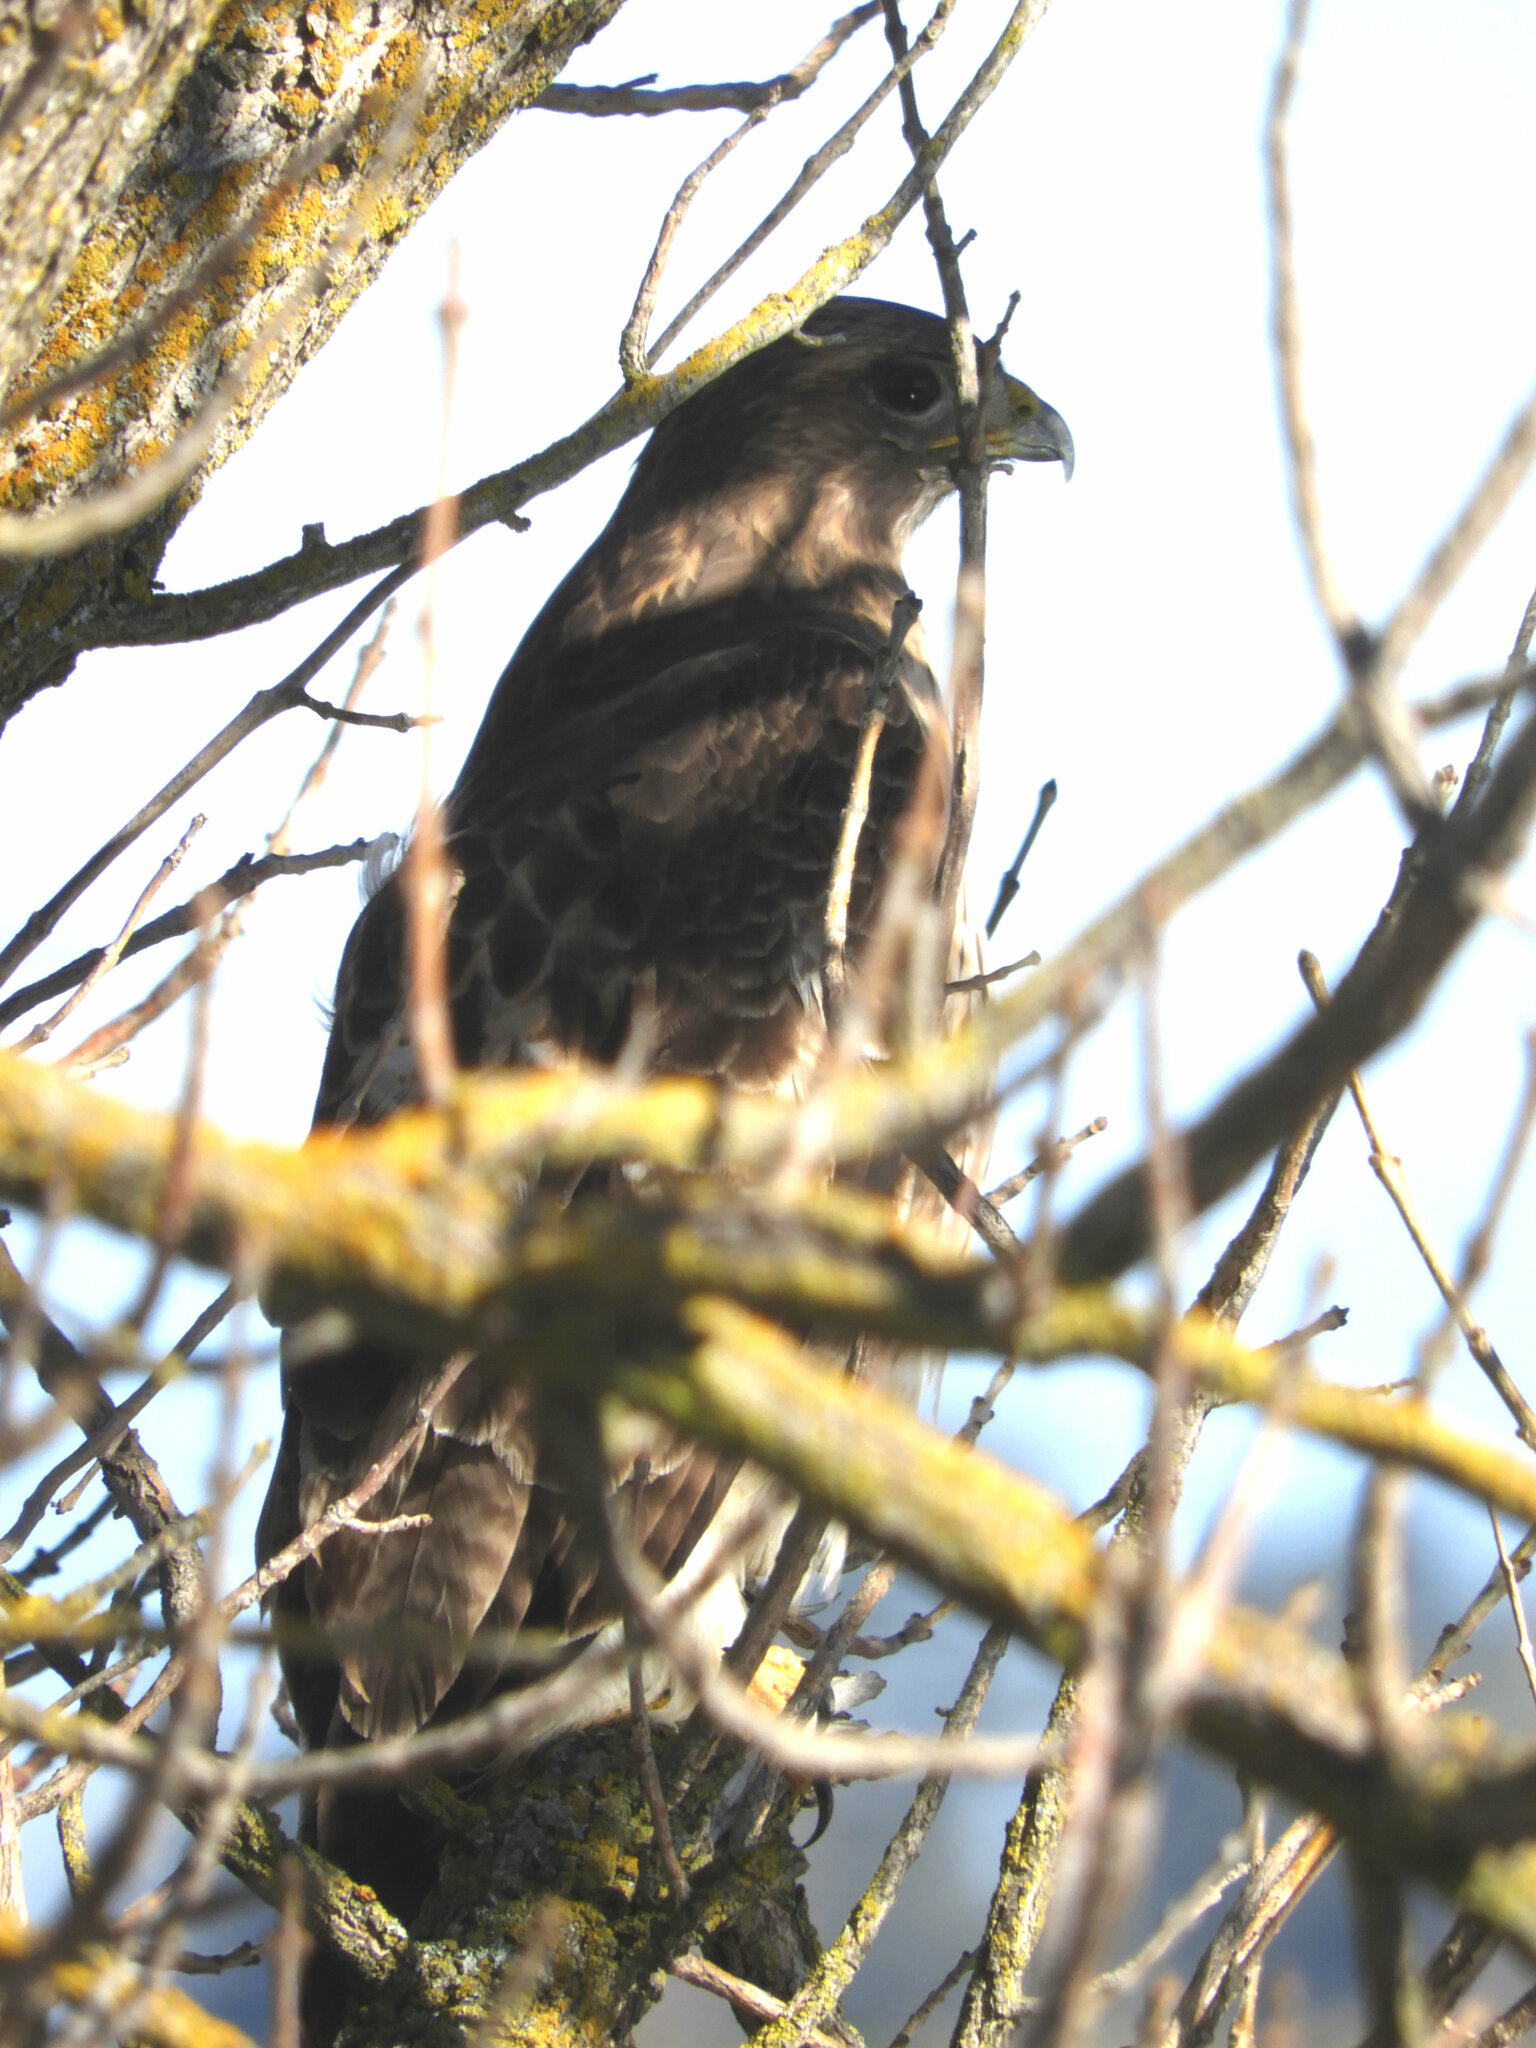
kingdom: Animalia
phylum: Chordata
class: Aves
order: Accipitriformes
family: Accipitridae
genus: Buteo
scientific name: Buteo jamaicensis
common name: Red-tailed hawk
